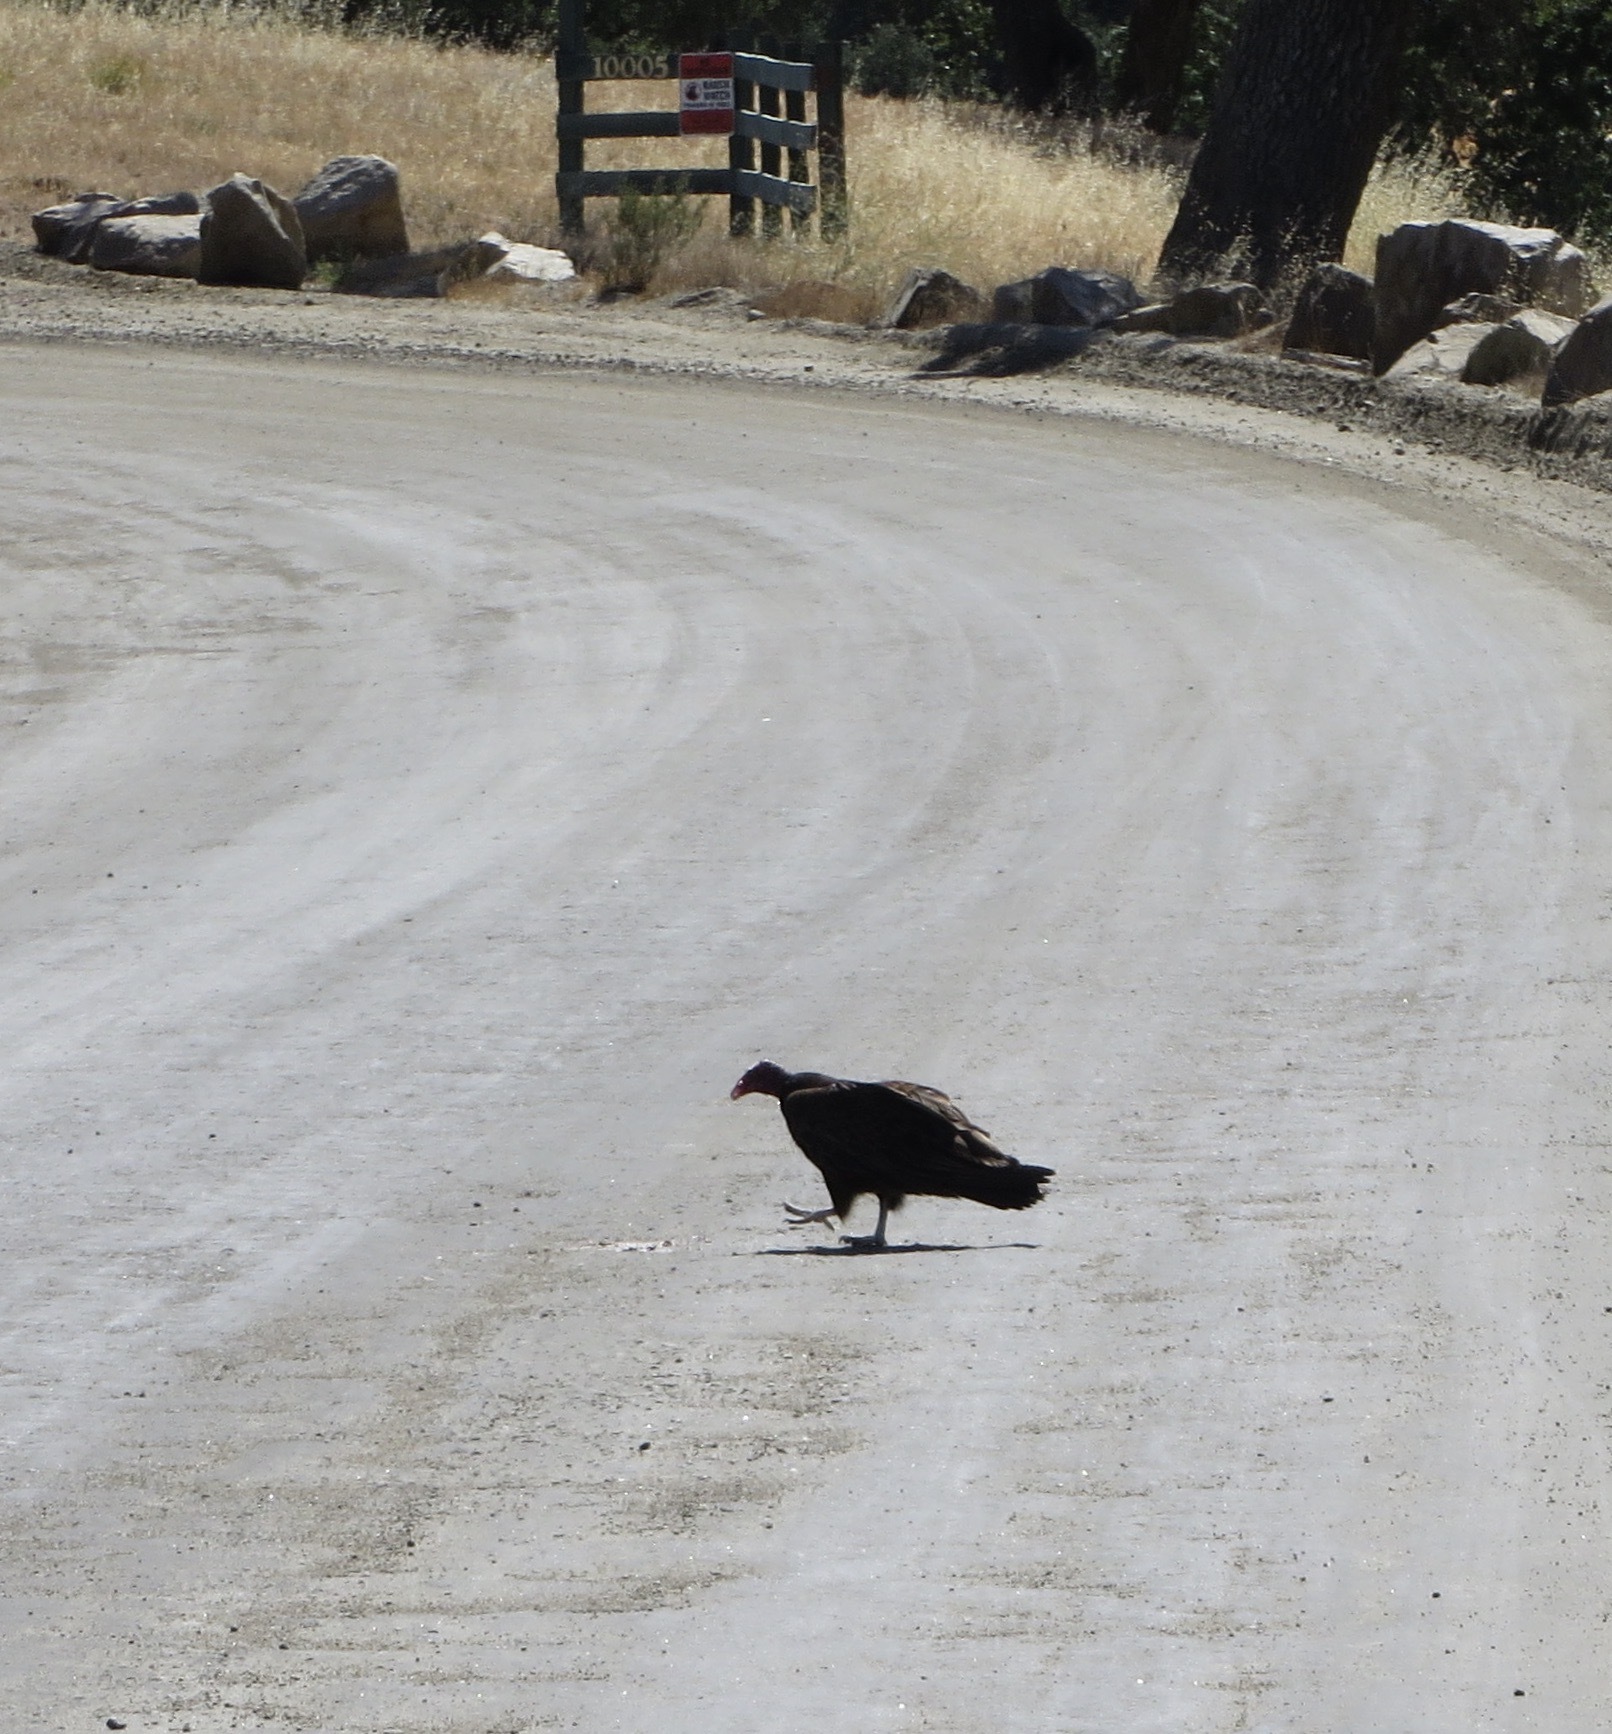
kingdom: Animalia
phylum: Chordata
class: Aves
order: Accipitriformes
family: Cathartidae
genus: Cathartes
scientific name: Cathartes aura
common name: Turkey vulture
